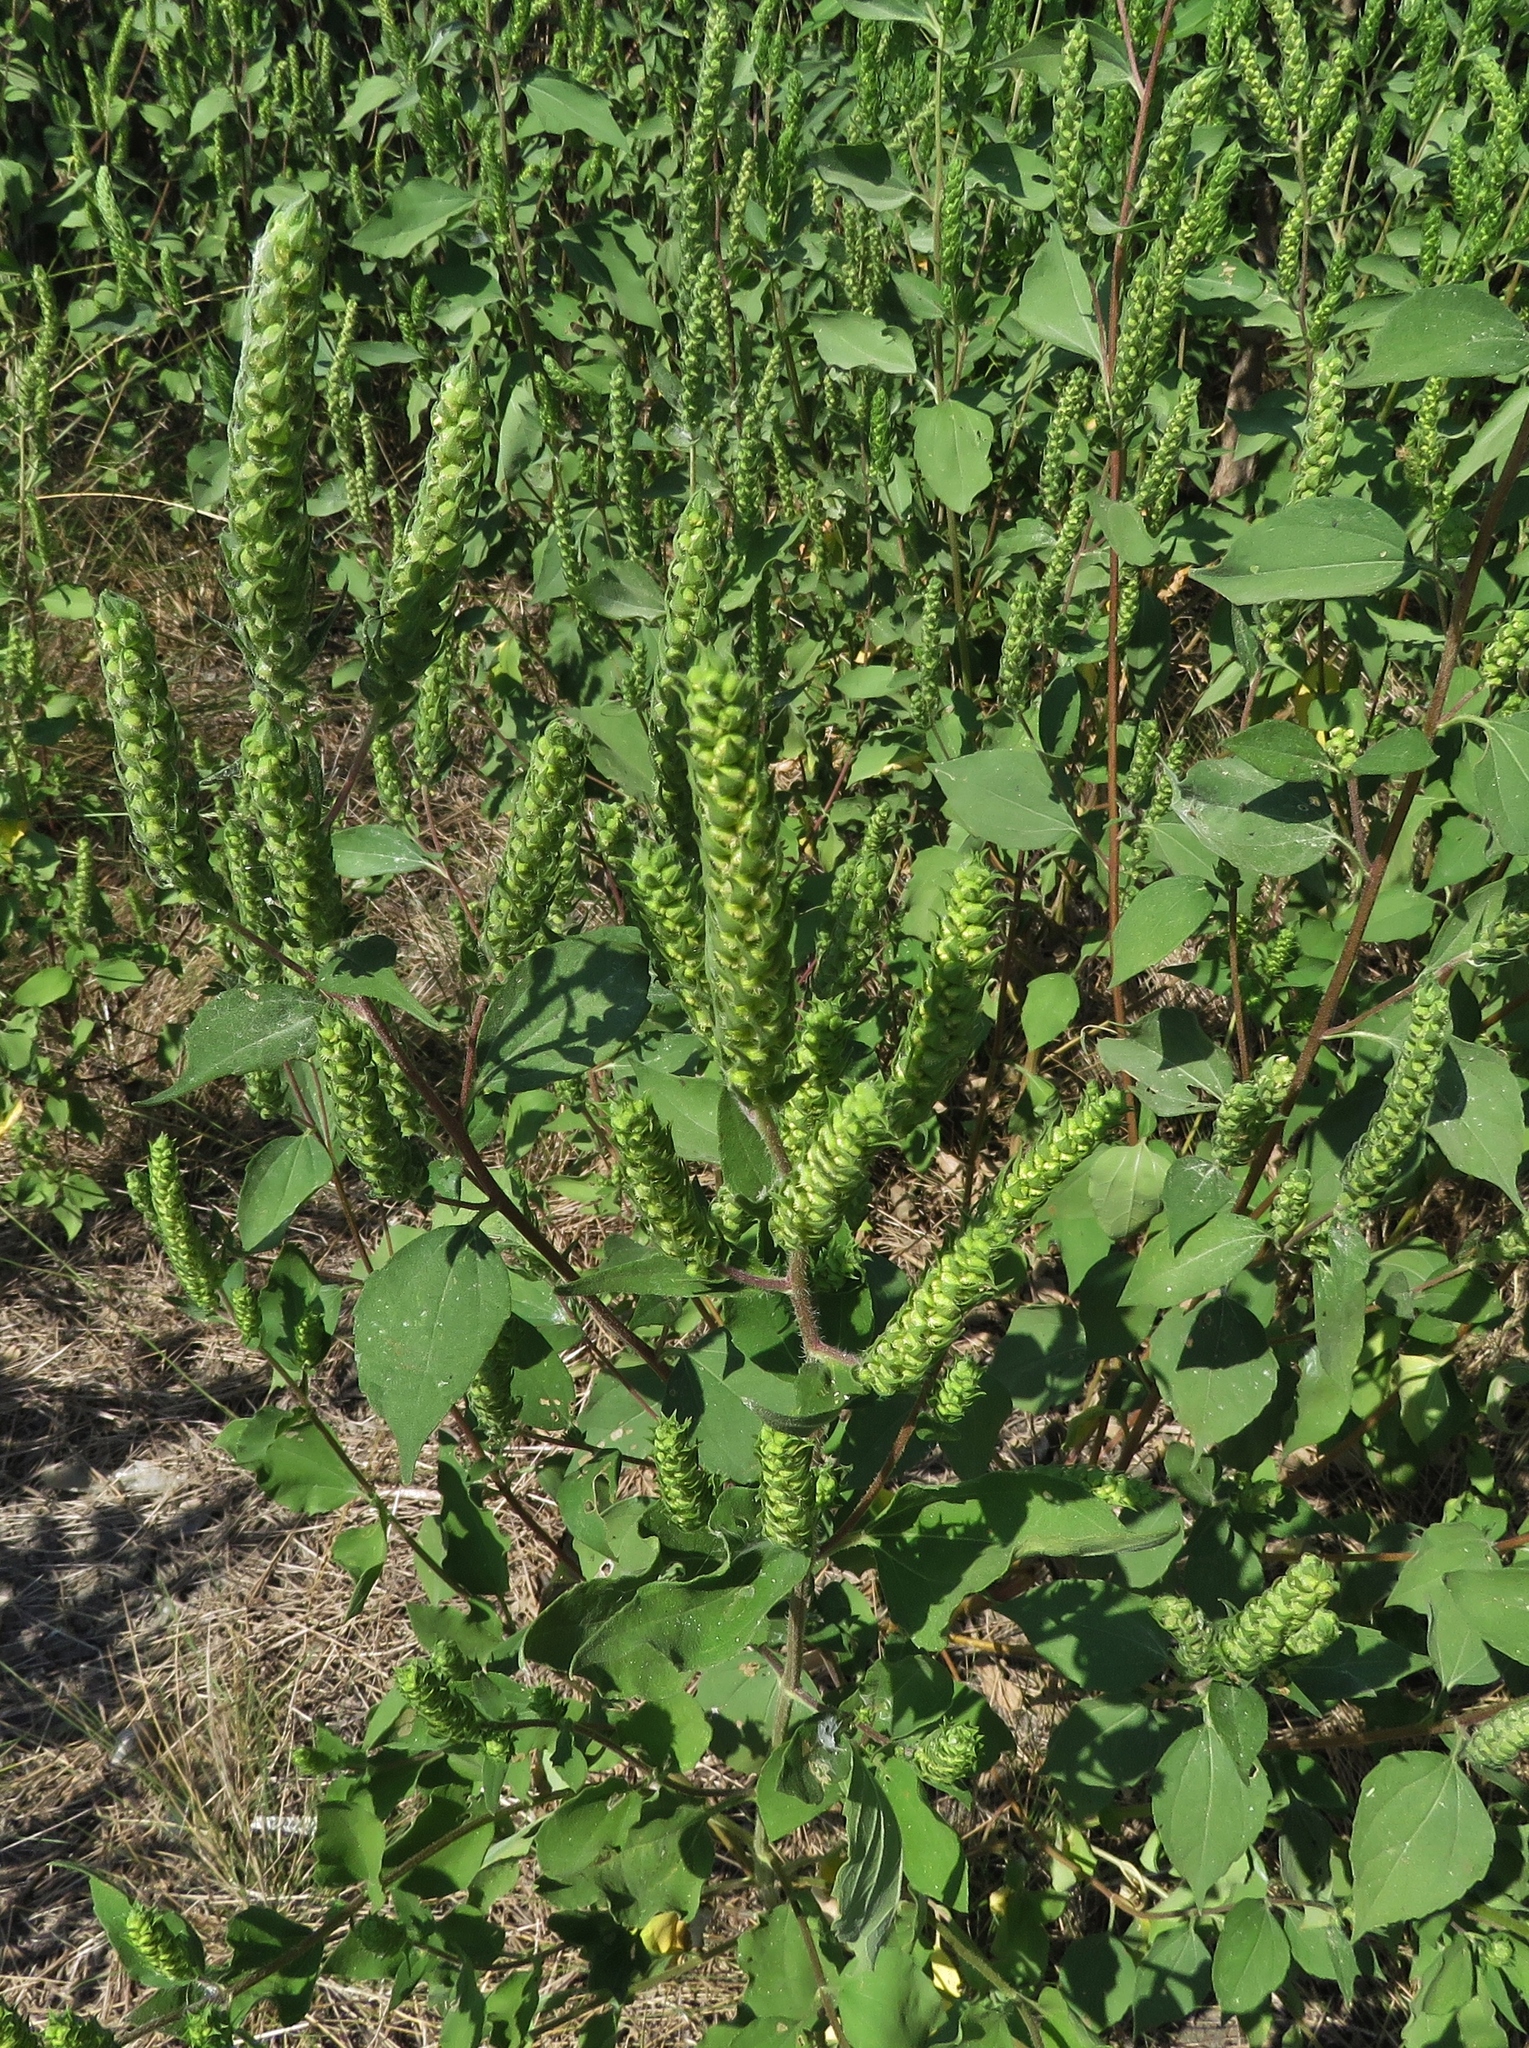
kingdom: Plantae
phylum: Tracheophyta
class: Magnoliopsida
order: Asterales
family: Asteraceae
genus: Iva
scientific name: Iva annua
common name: Marsh-elder
